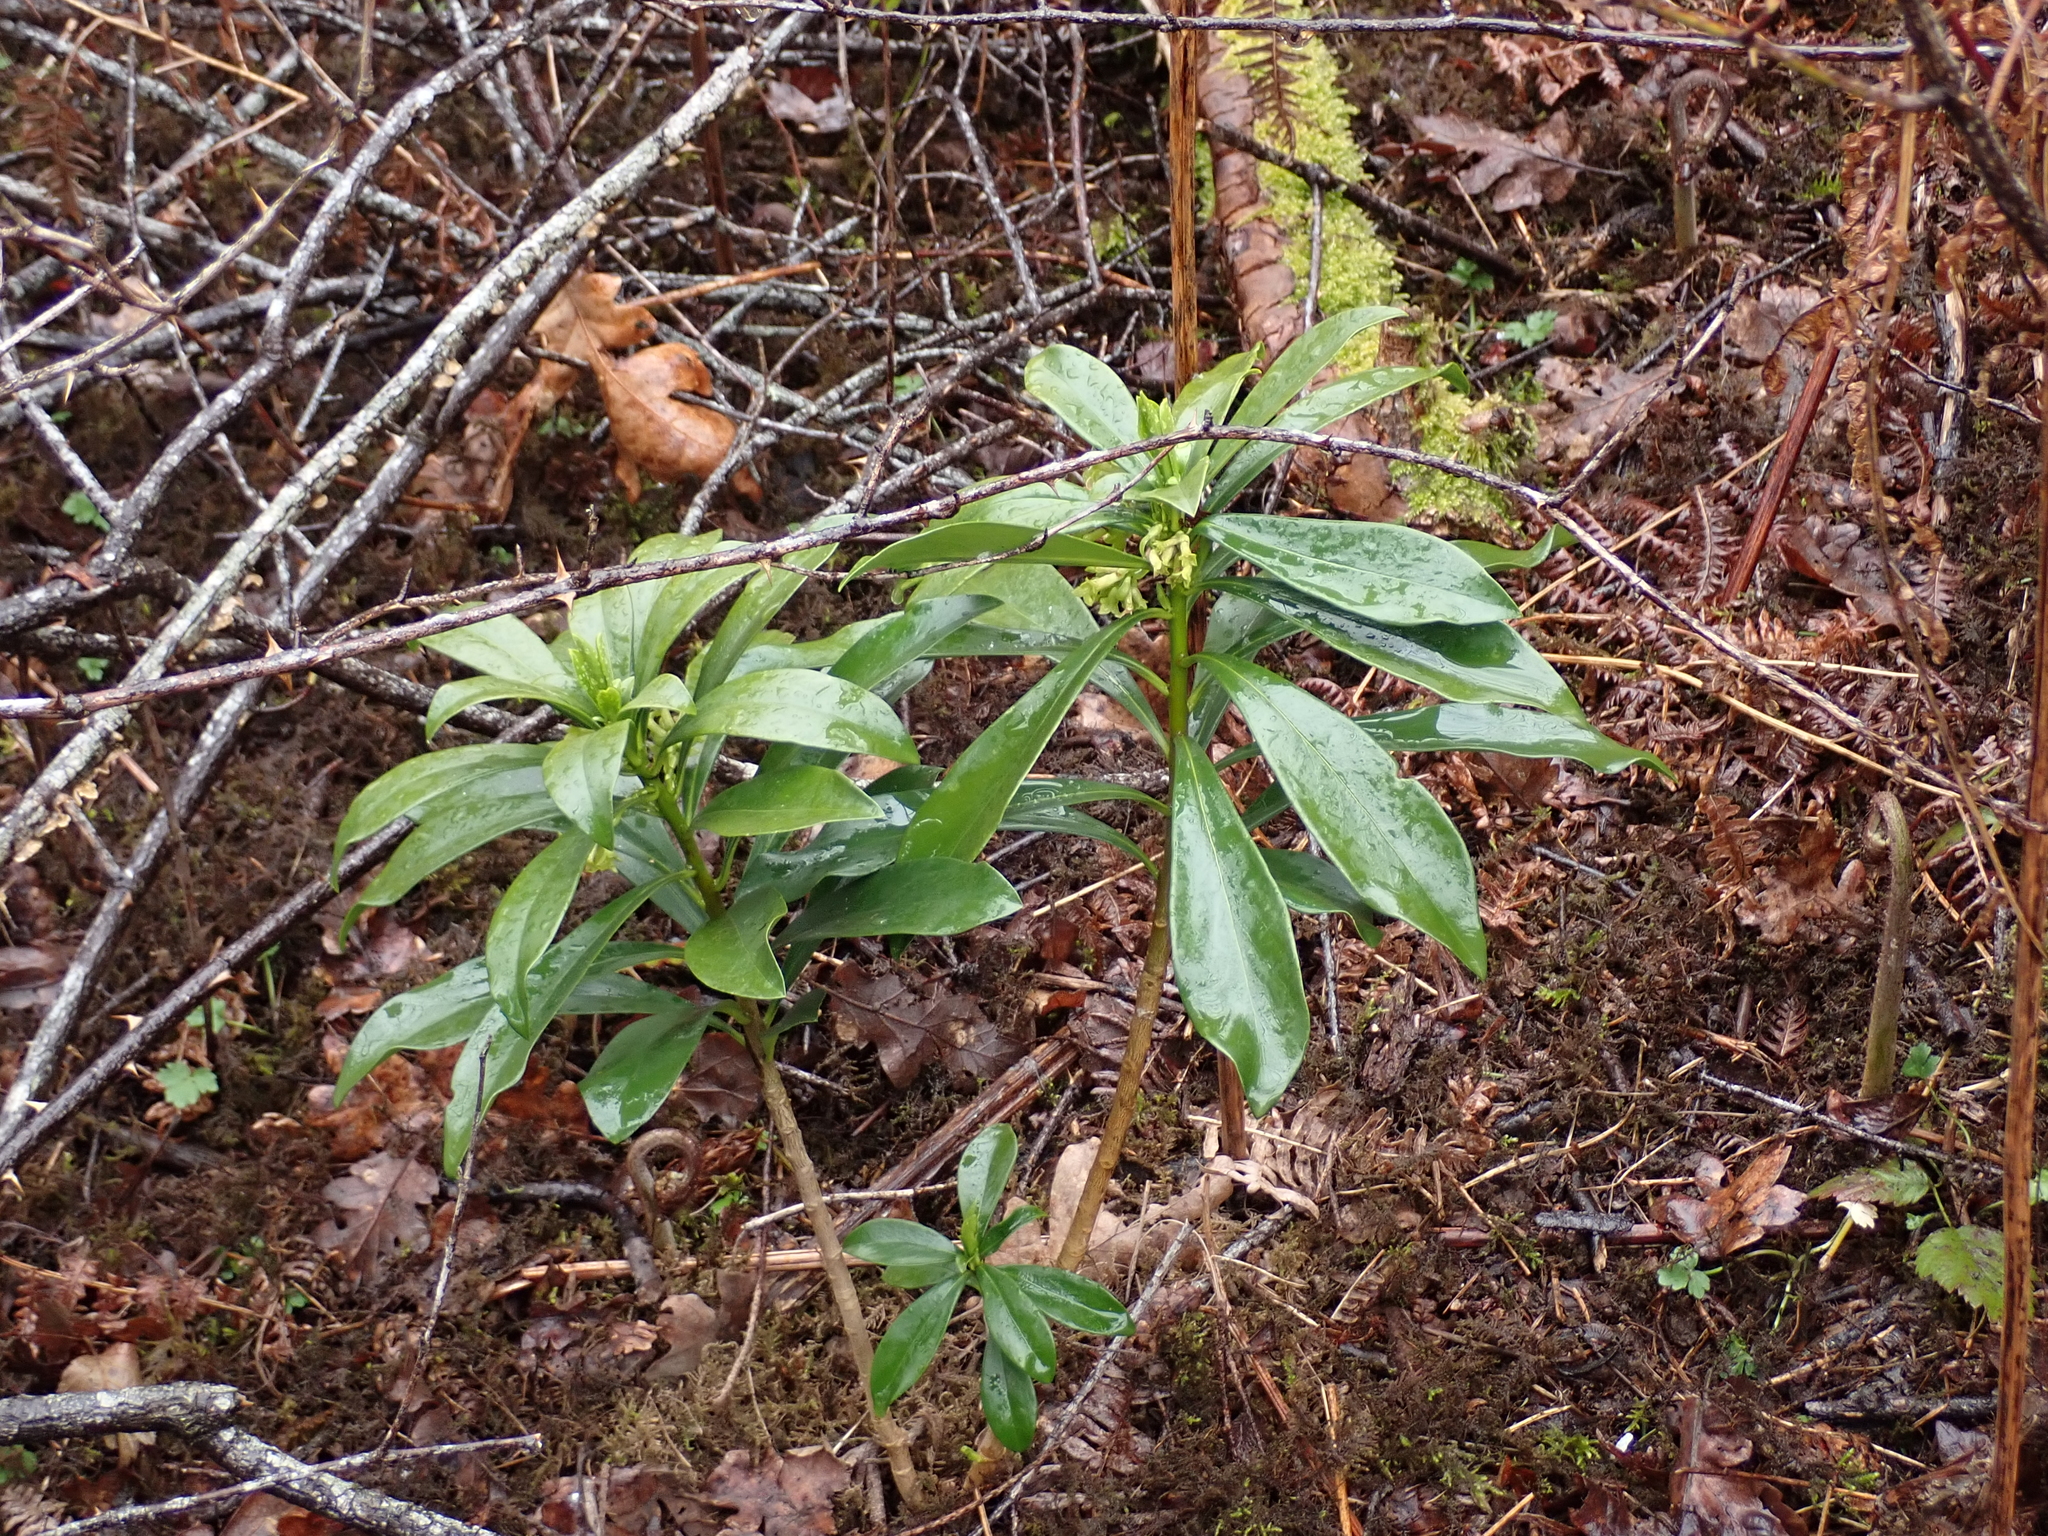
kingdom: Plantae
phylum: Tracheophyta
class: Magnoliopsida
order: Malvales
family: Thymelaeaceae
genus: Daphne
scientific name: Daphne laureola
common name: Spurge-laurel
